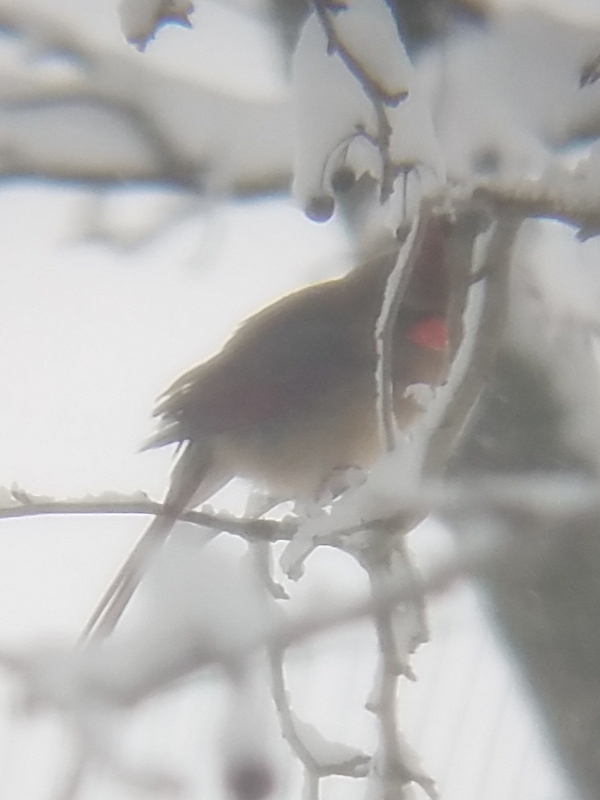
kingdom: Animalia
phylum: Chordata
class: Aves
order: Passeriformes
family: Cardinalidae
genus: Cardinalis
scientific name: Cardinalis cardinalis
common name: Northern cardinal
